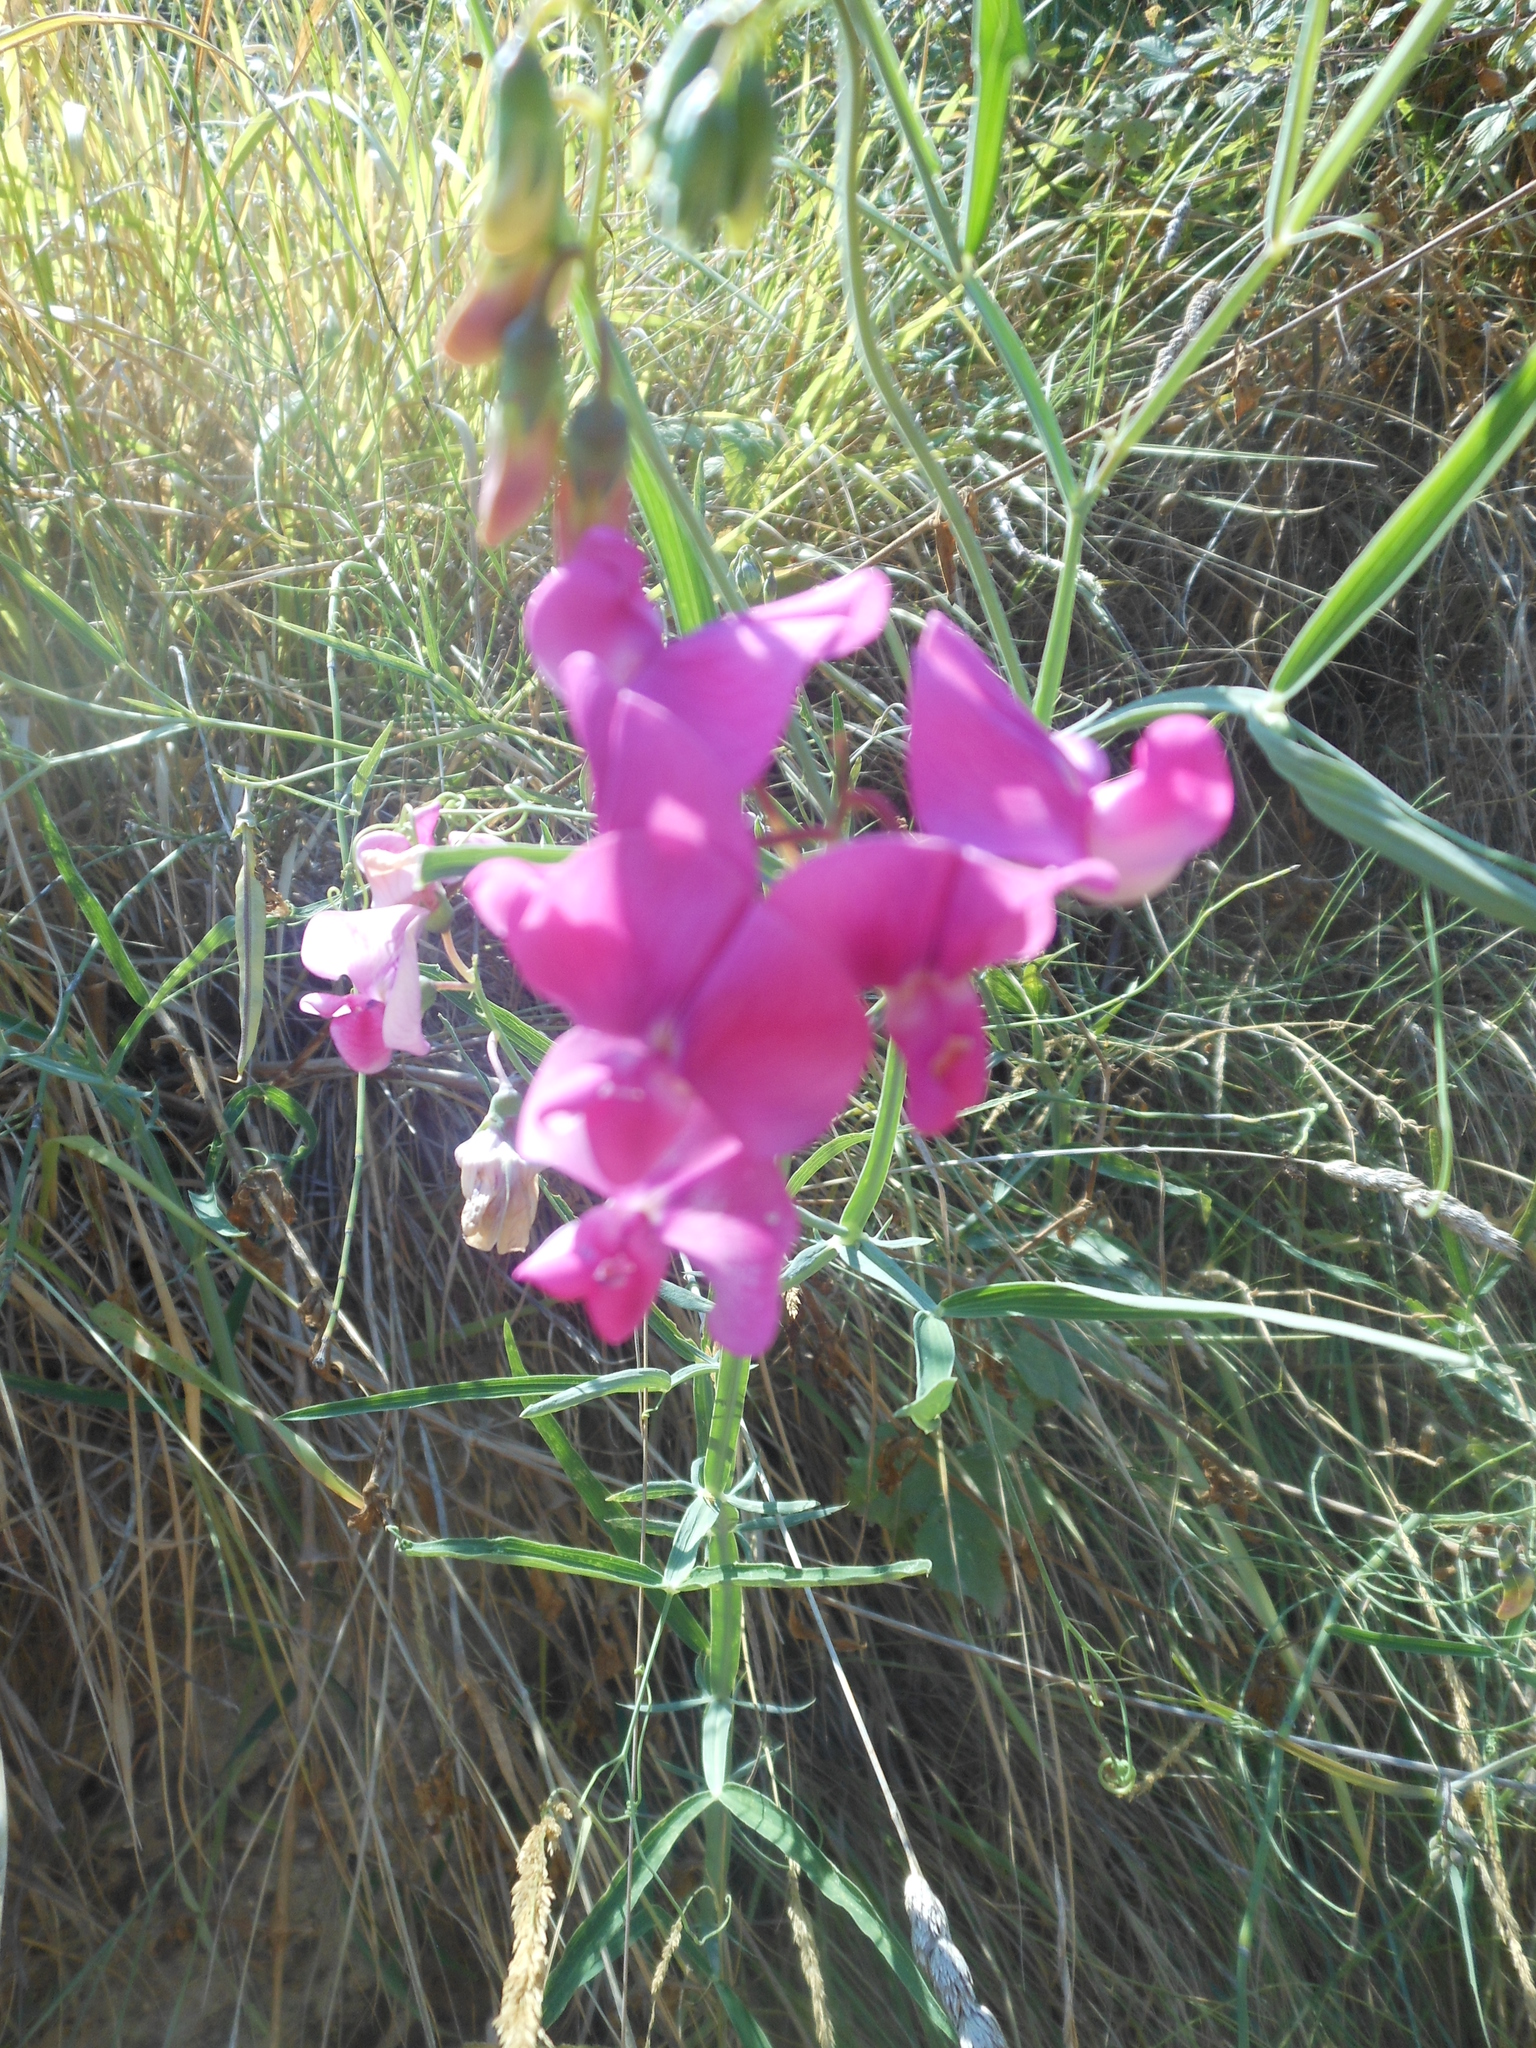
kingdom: Plantae
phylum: Tracheophyta
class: Magnoliopsida
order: Fabales
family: Fabaceae
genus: Lathyrus
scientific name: Lathyrus latifolius
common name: Perennial pea
